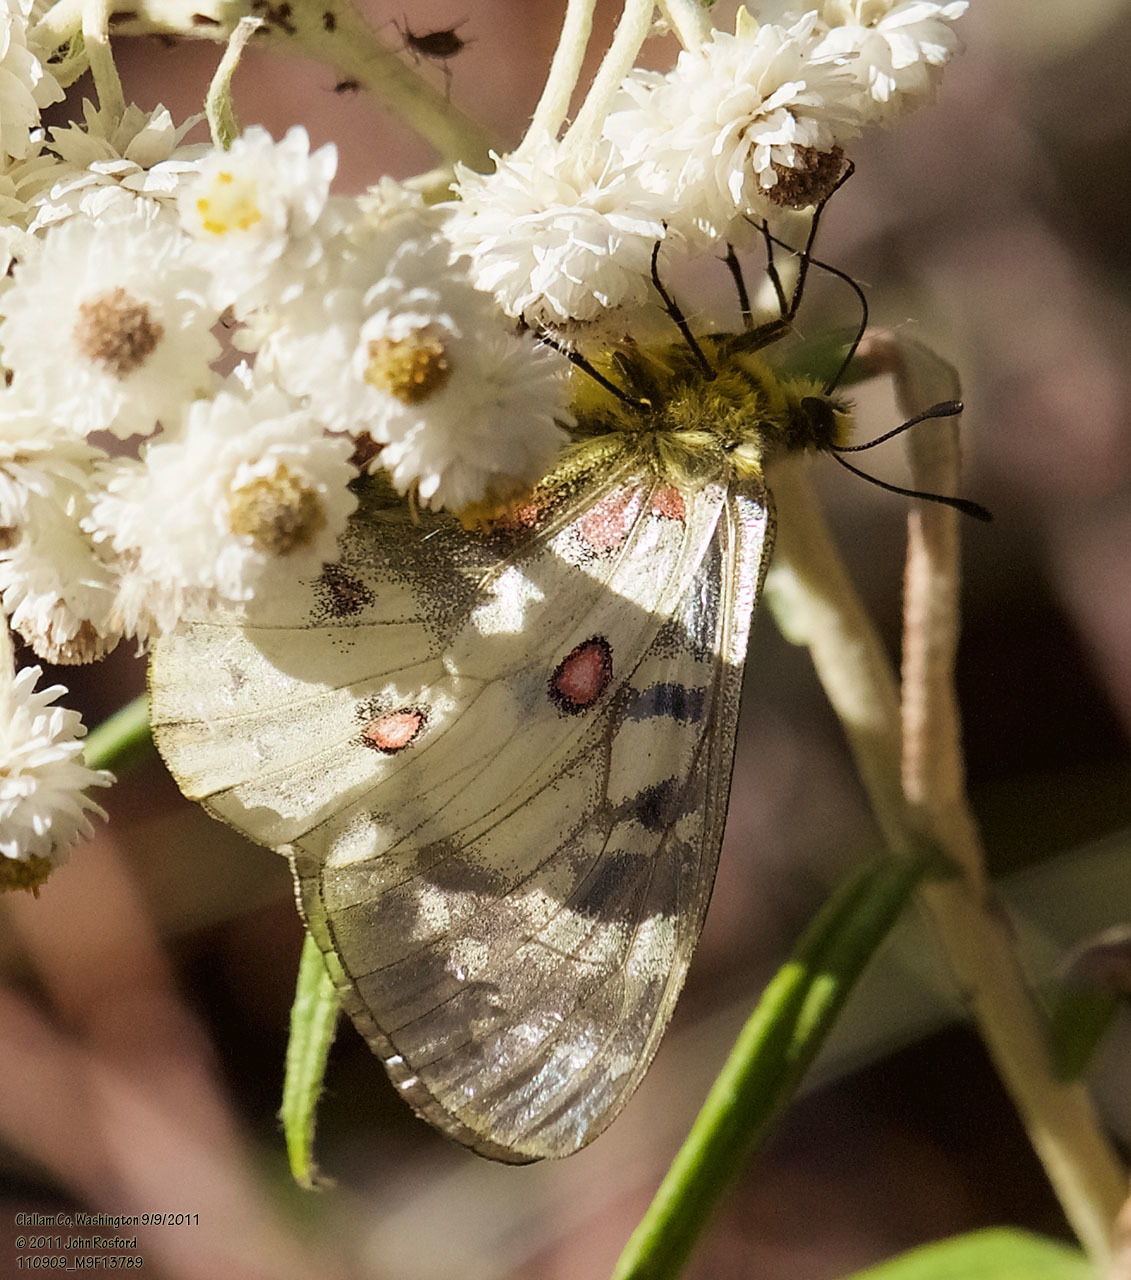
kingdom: Animalia
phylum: Arthropoda
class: Insecta
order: Lepidoptera
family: Papilionidae
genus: Parnassius
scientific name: Parnassius clodius
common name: American apollo
